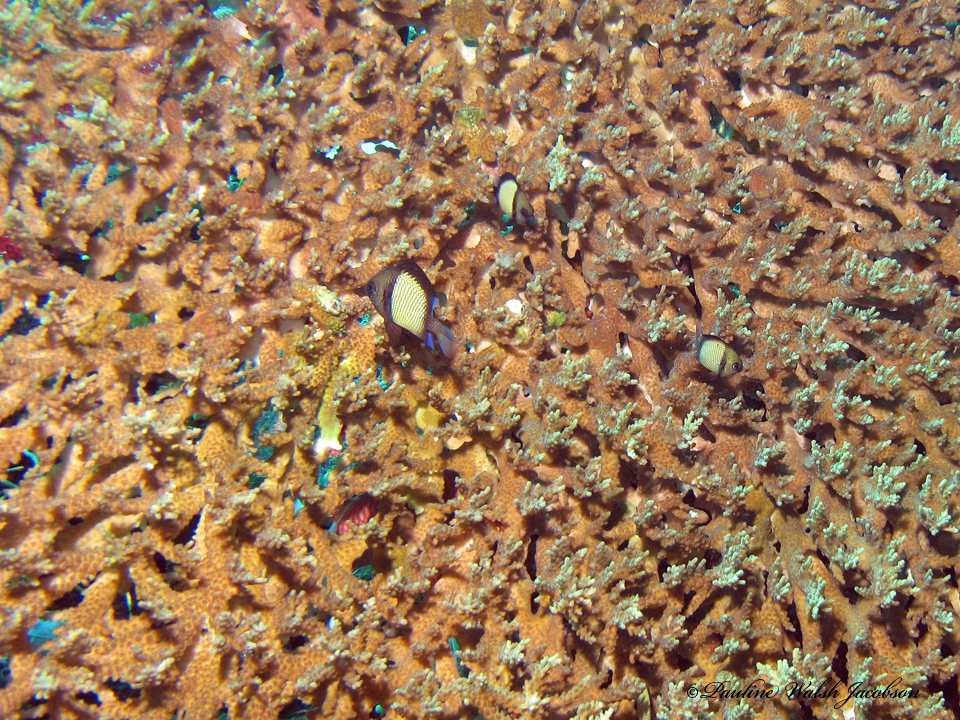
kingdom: Animalia
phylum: Chordata
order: Perciformes
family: Pomacentridae
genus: Dascyllus
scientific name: Dascyllus reticulatus
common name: Reticulated dascyllus
